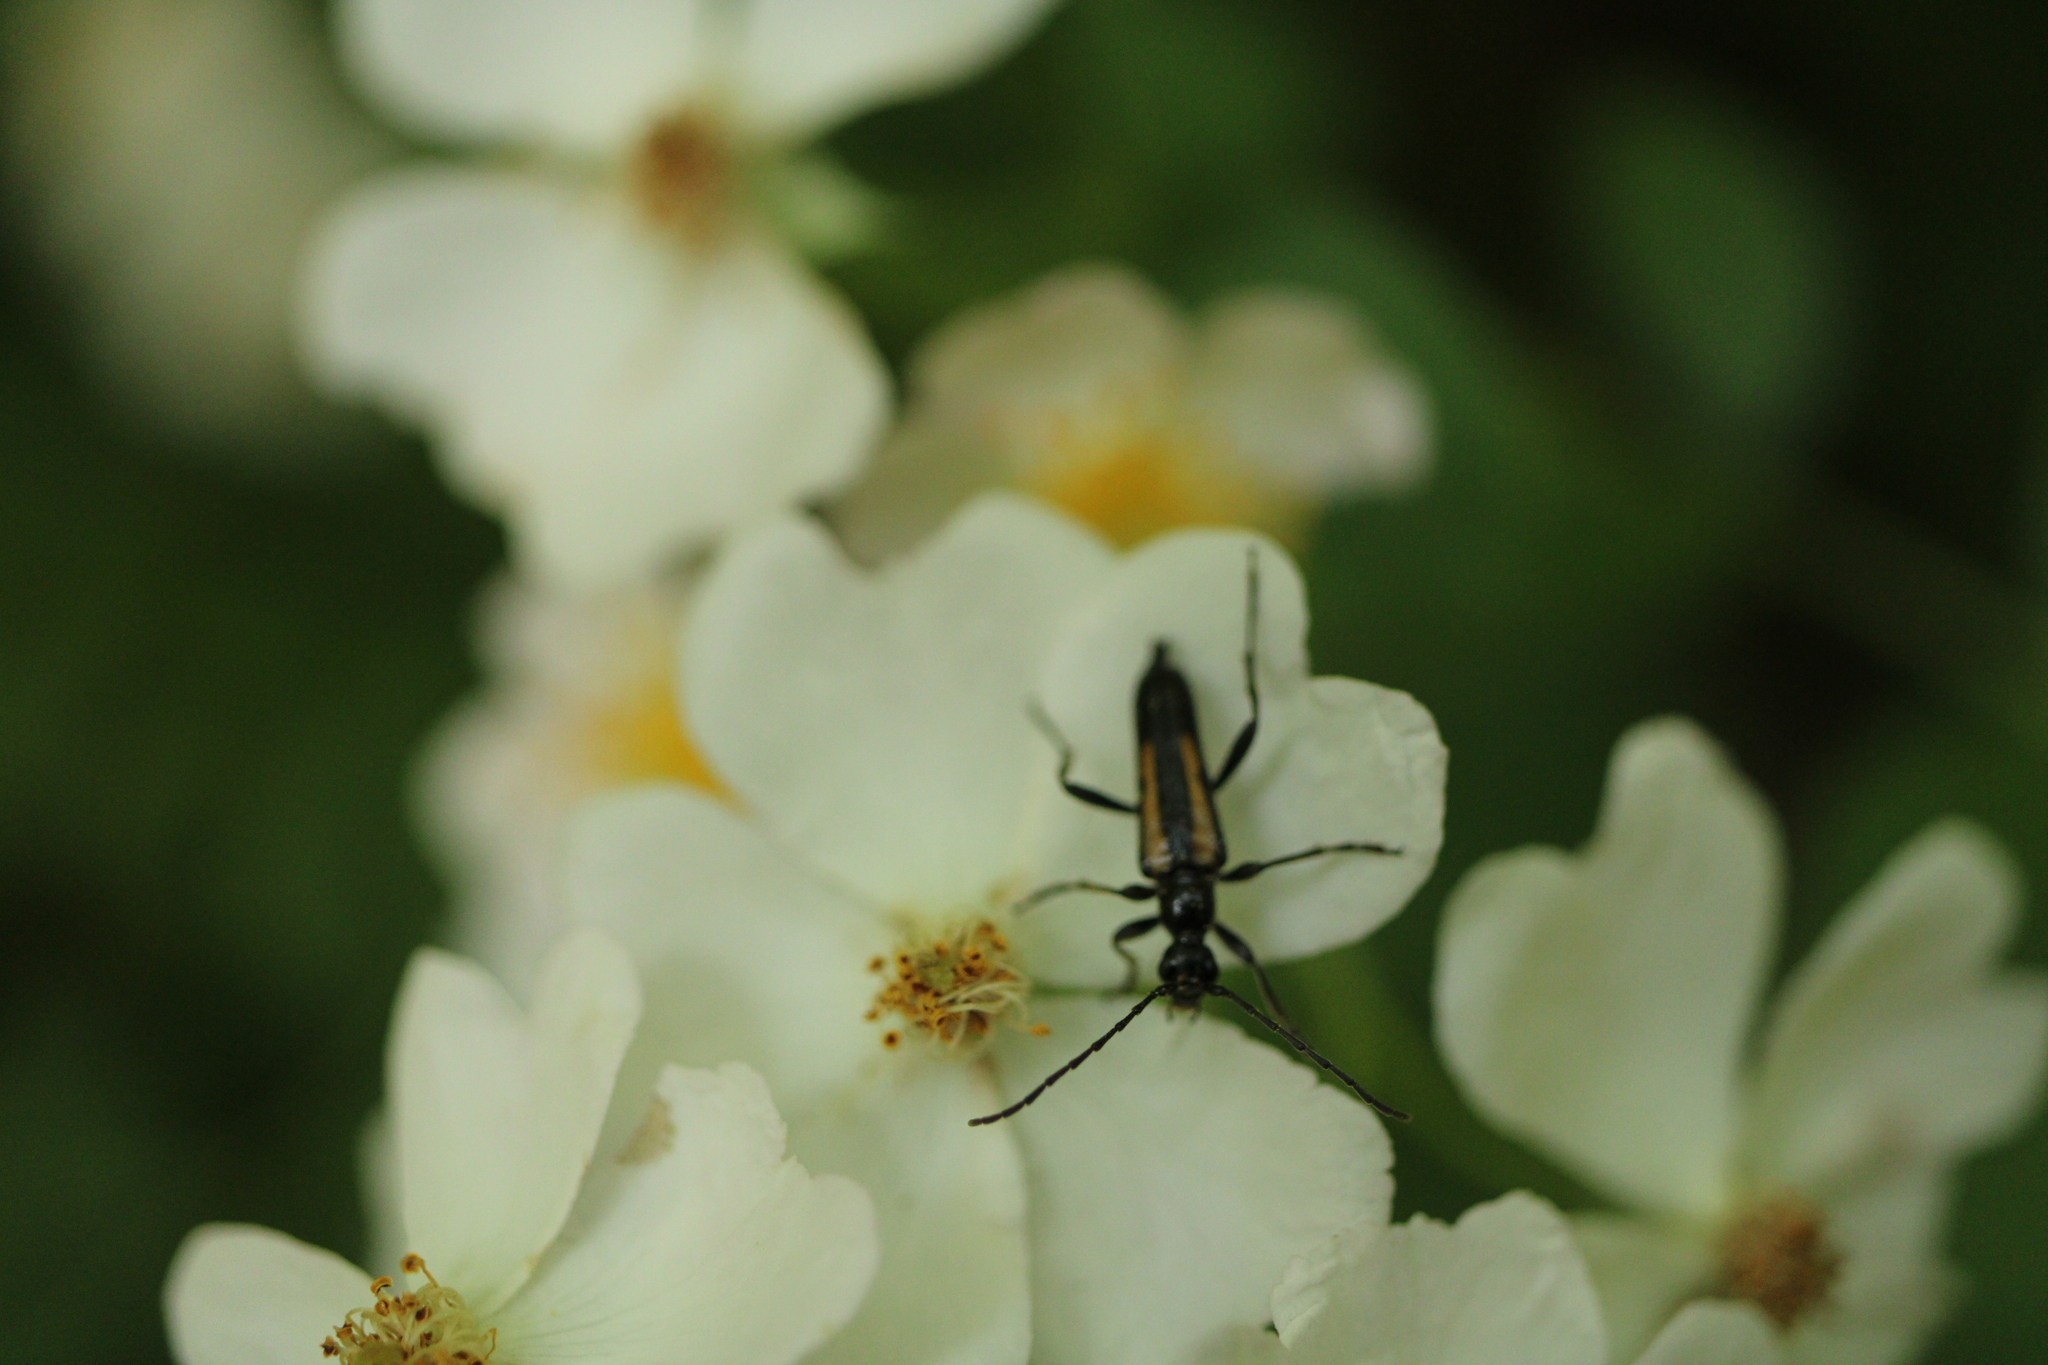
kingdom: Animalia
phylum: Arthropoda
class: Insecta
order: Coleoptera
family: Cerambycidae
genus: Strangalepta
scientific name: Strangalepta abbreviata
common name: Strangalepta flower longhorn beetle
